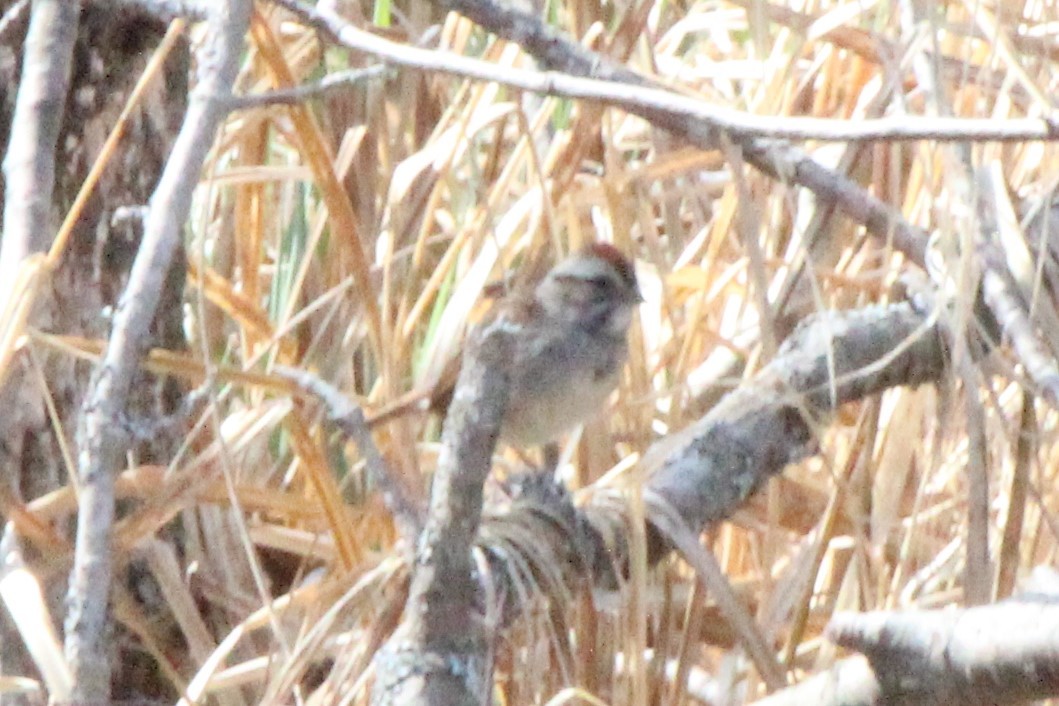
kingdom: Animalia
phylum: Chordata
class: Aves
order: Passeriformes
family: Passerellidae
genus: Melospiza
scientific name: Melospiza georgiana
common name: Swamp sparrow
